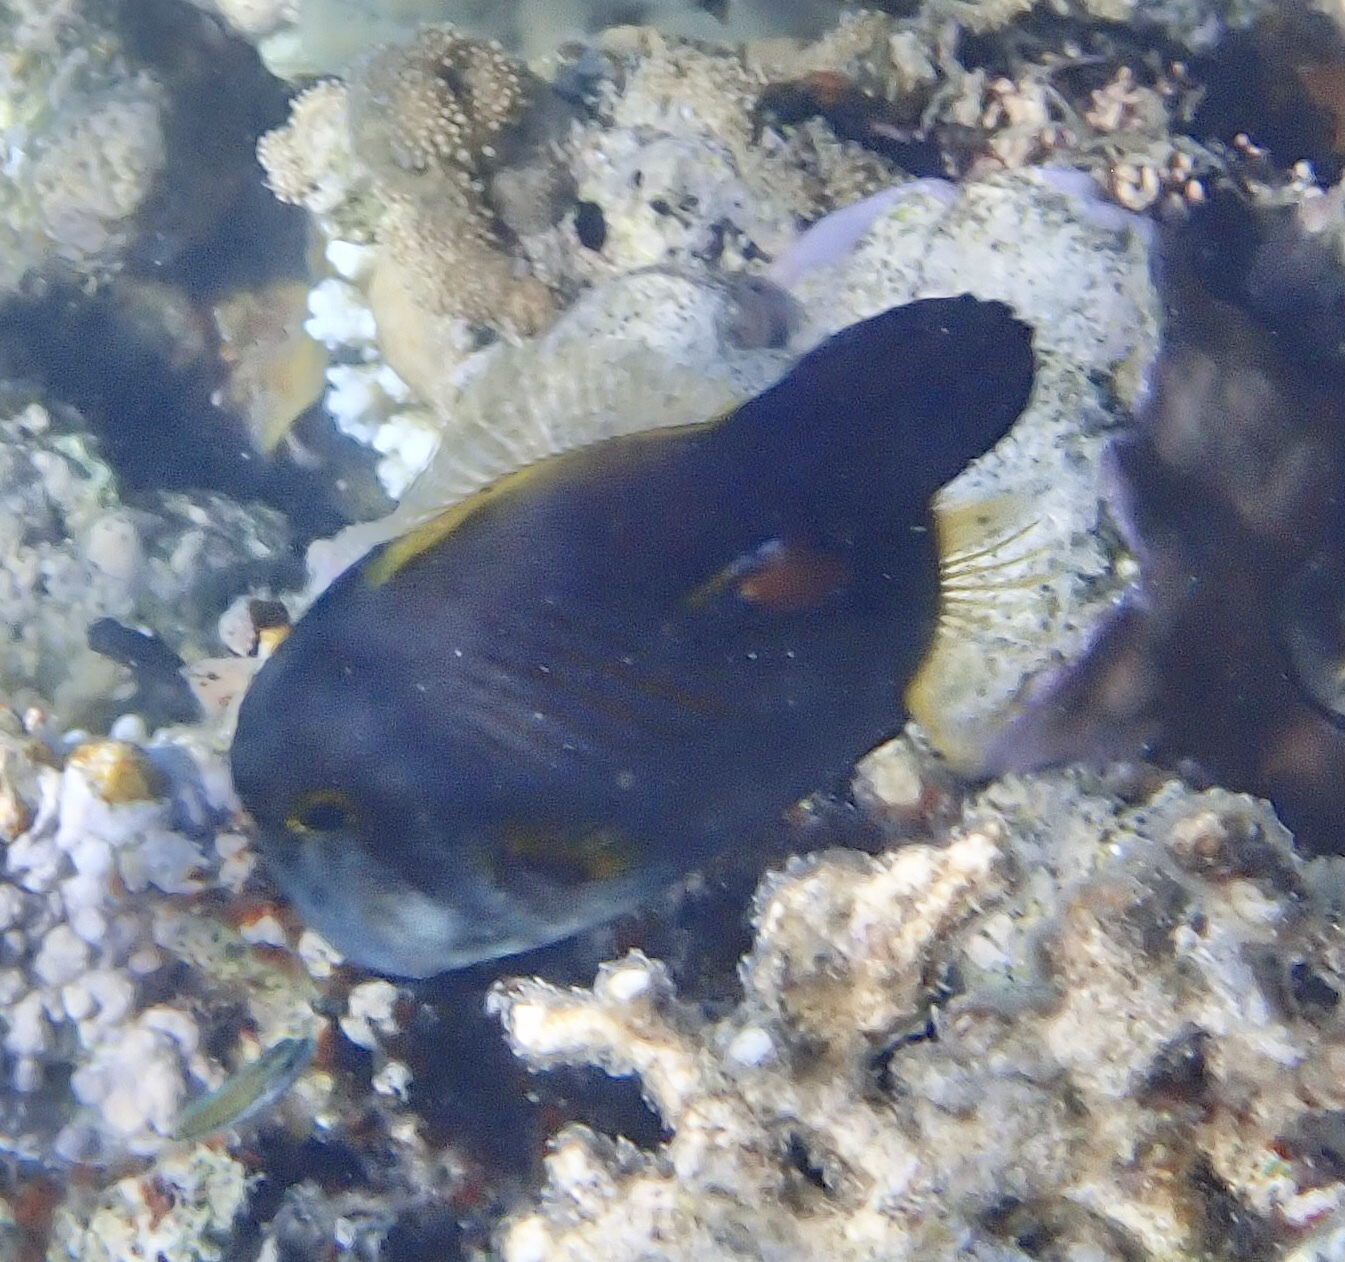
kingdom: Animalia
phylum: Chordata
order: Tetraodontiformes
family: Monacanthidae
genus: Amanses
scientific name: Amanses scopas
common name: Broom filefish
